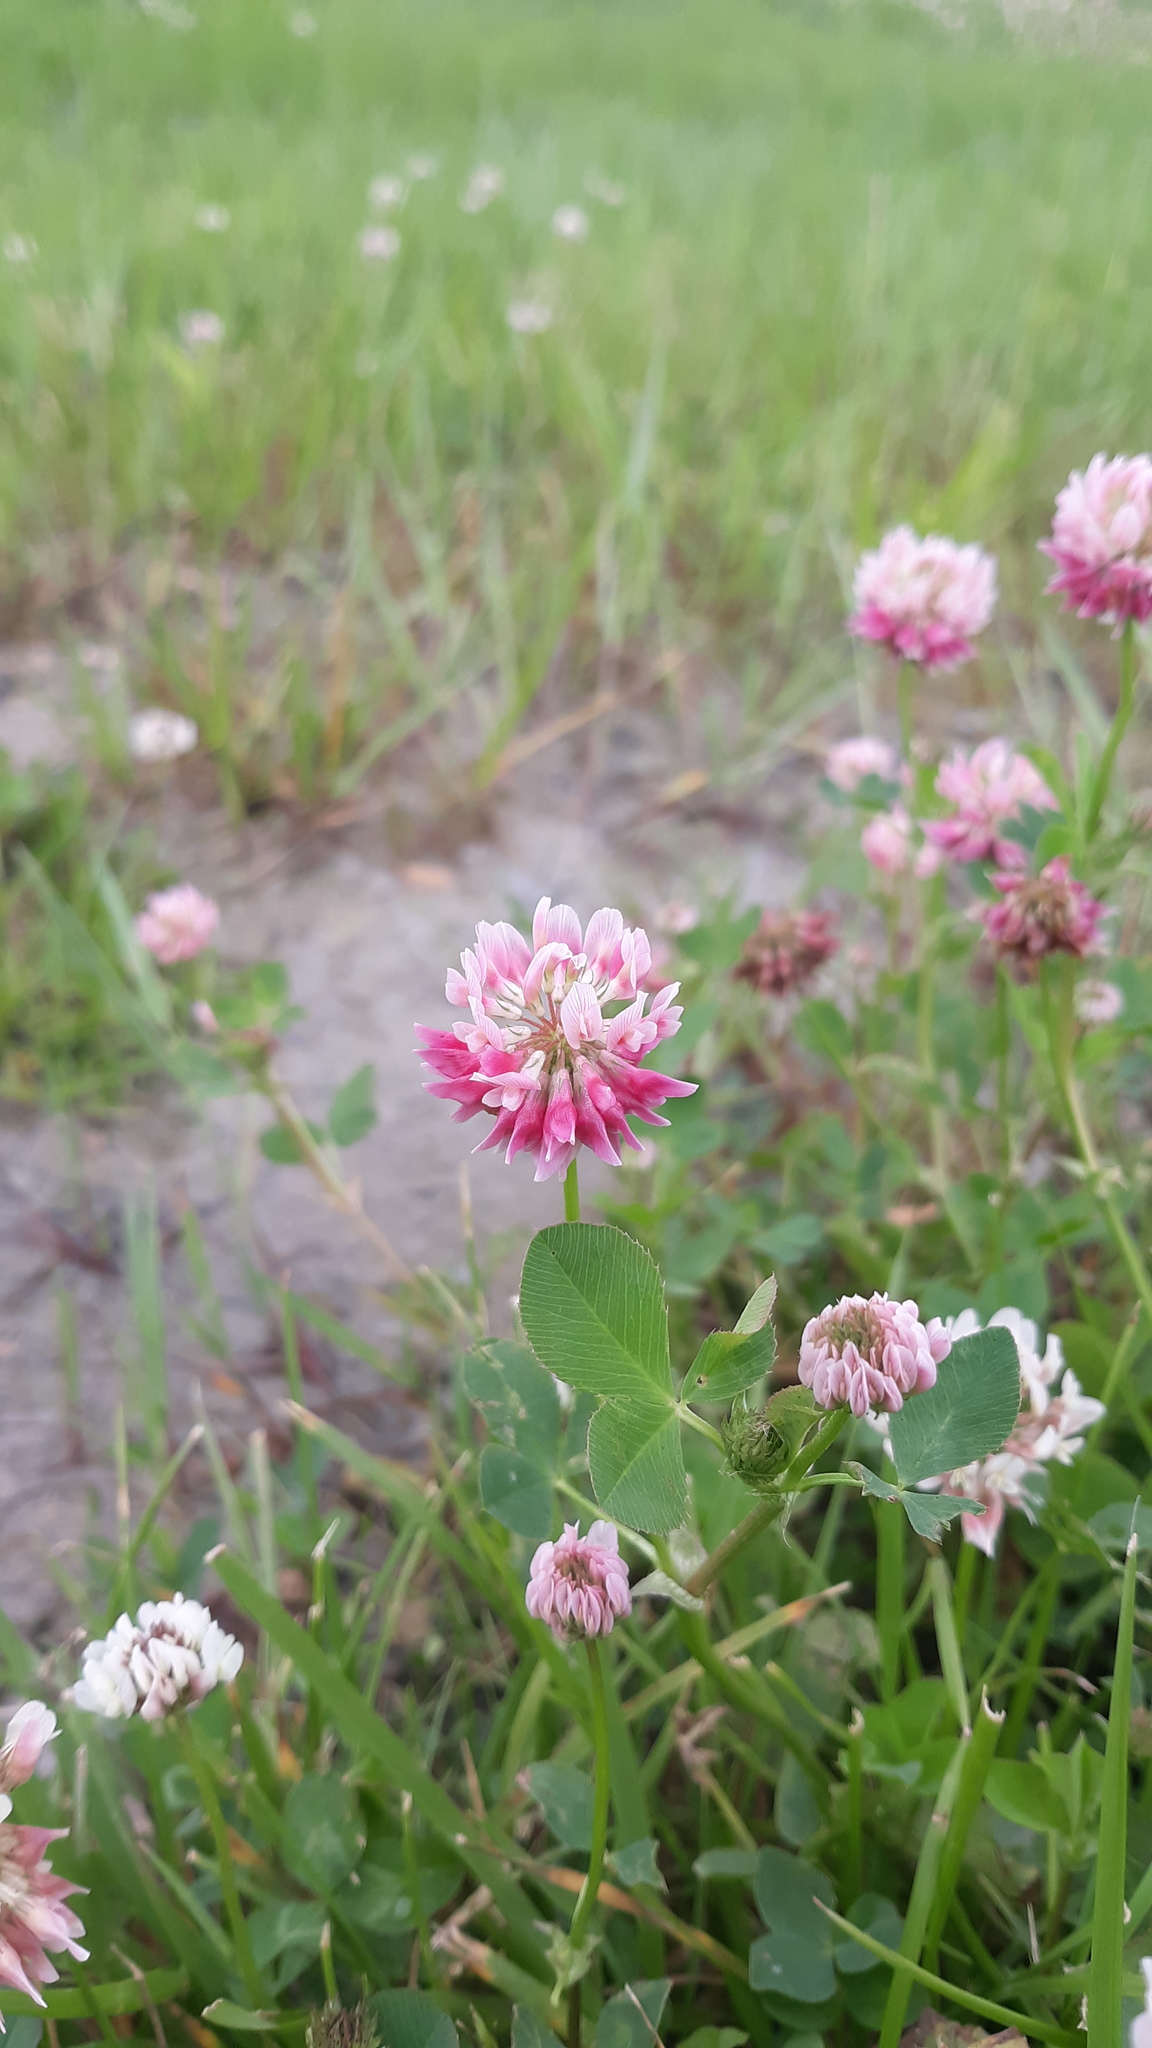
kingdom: Plantae
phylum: Tracheophyta
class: Magnoliopsida
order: Fabales
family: Fabaceae
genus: Trifolium
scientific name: Trifolium hybridum
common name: Alsike clover
